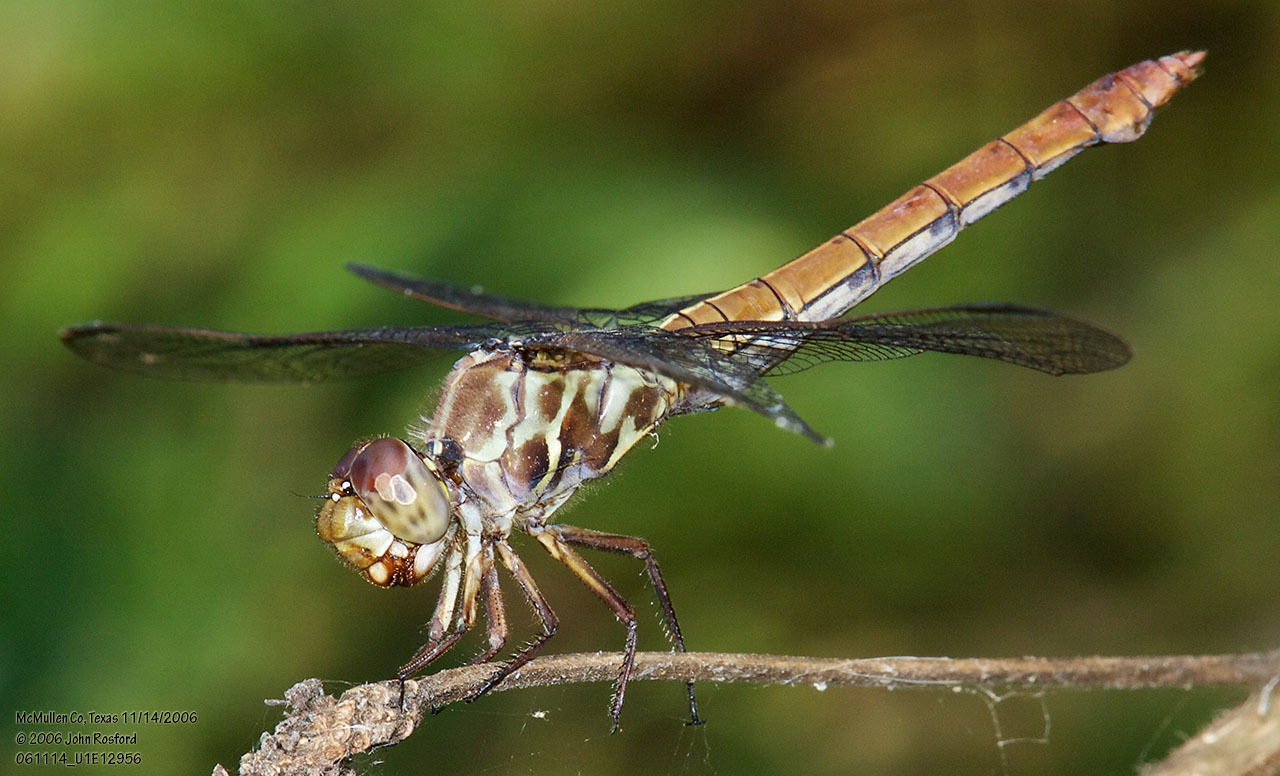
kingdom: Animalia
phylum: Arthropoda
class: Insecta
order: Odonata
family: Libellulidae
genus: Orthemis
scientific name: Orthemis ferruginea
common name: Roseate skimmer
